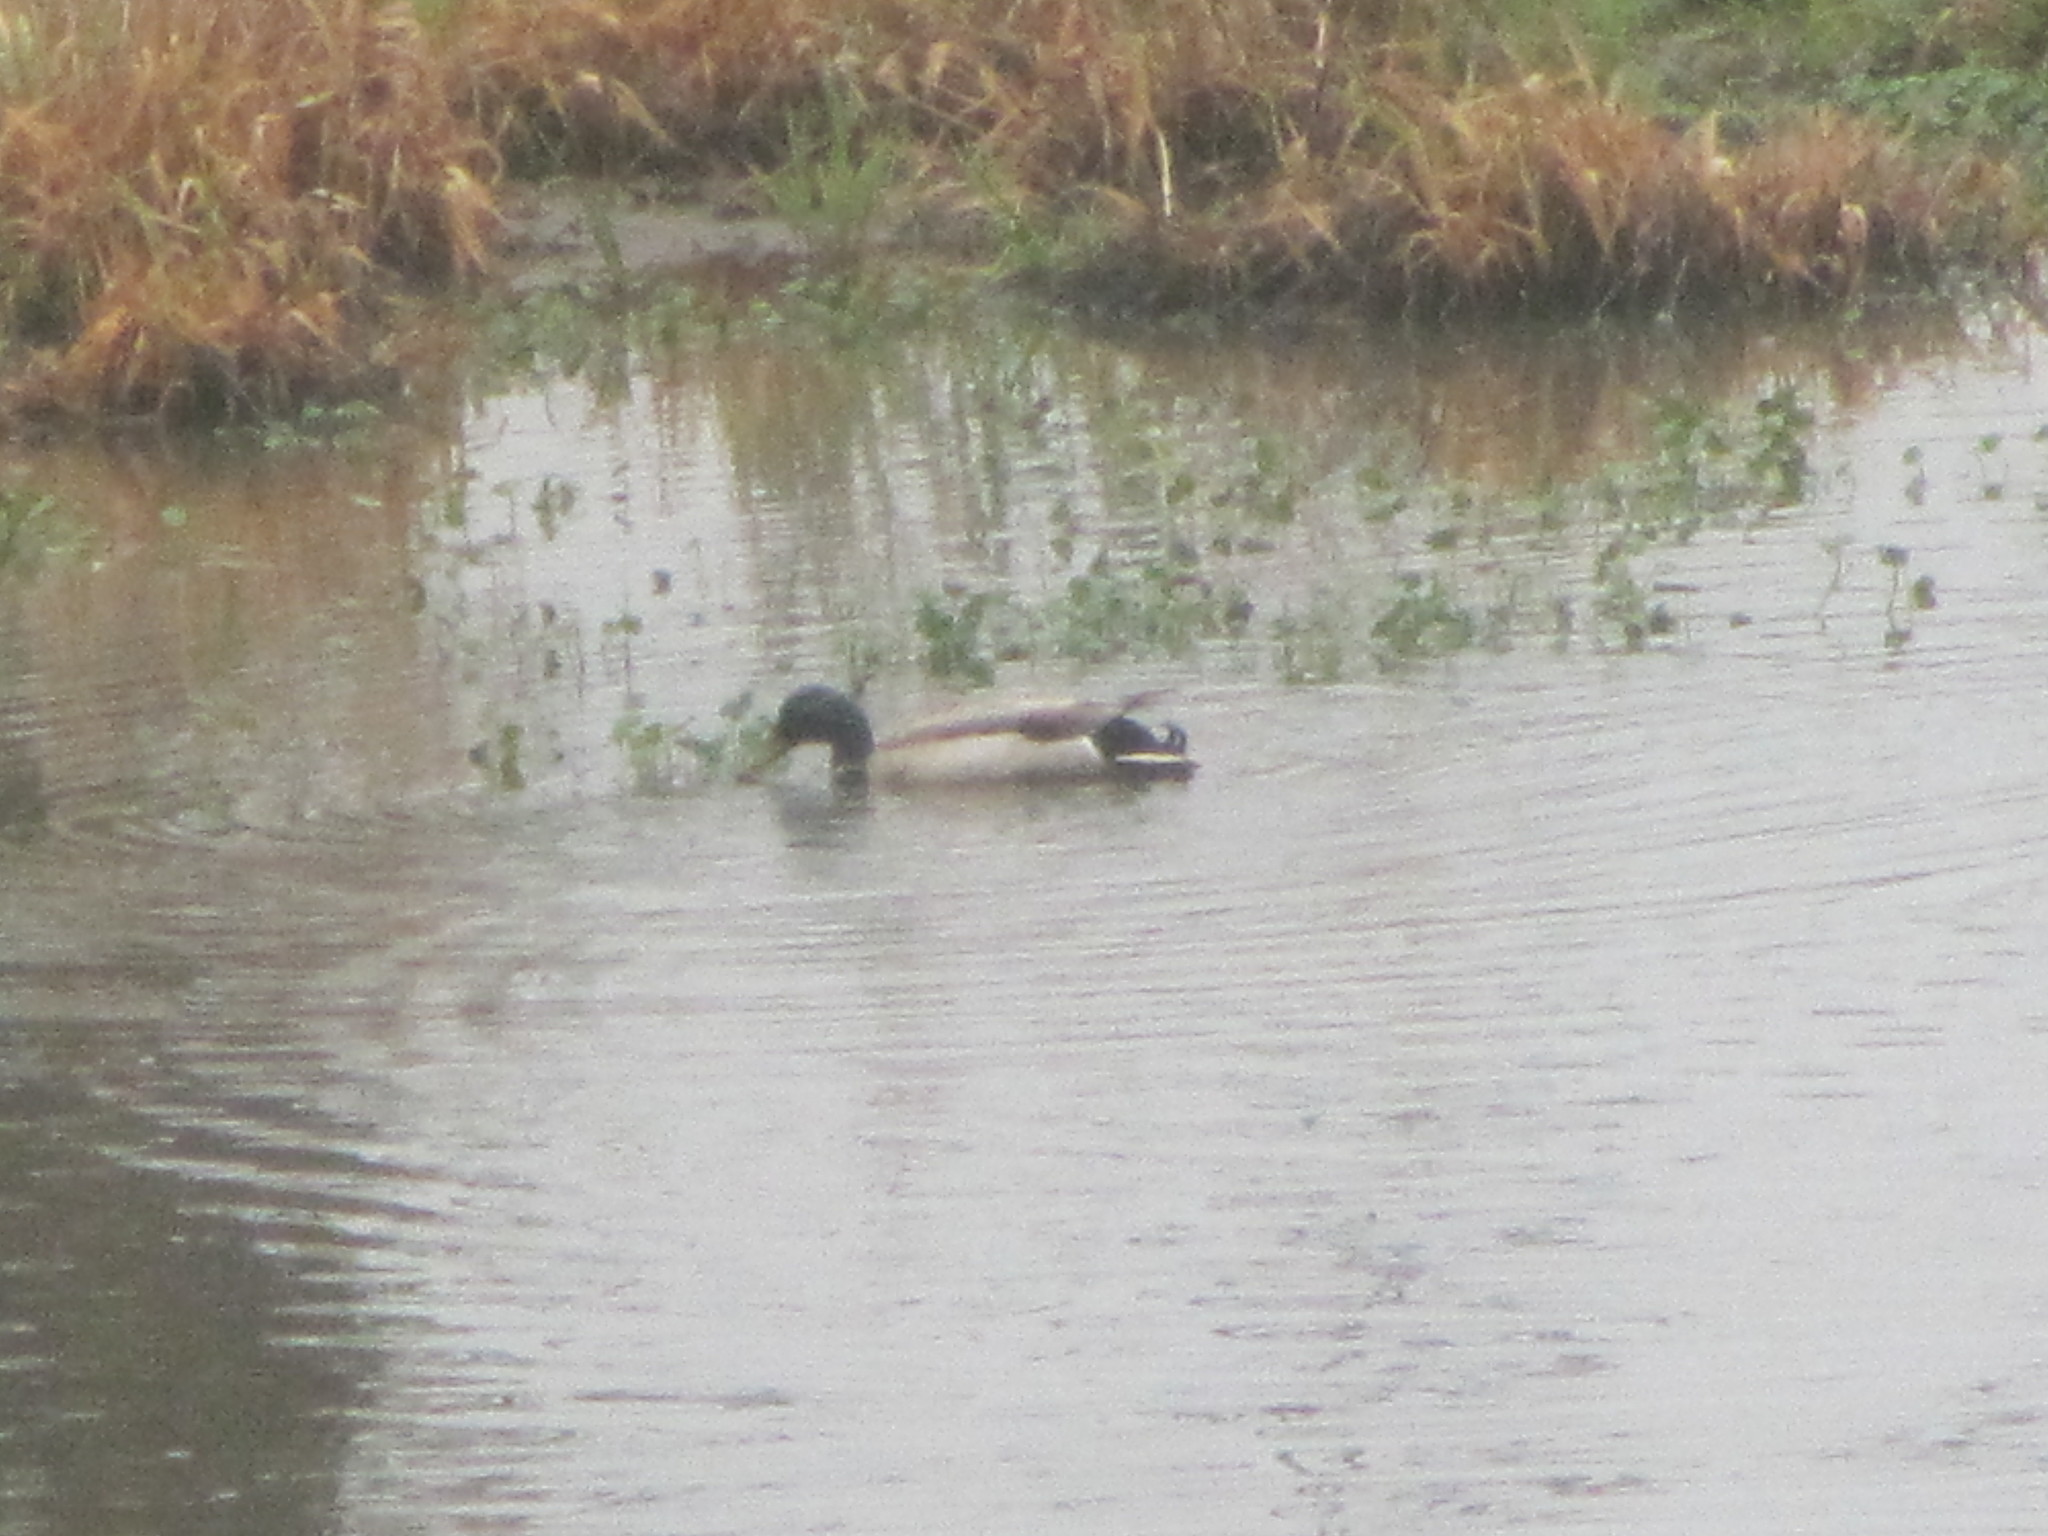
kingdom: Animalia
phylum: Chordata
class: Aves
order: Anseriformes
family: Anatidae
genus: Anas
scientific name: Anas platyrhynchos
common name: Mallard
